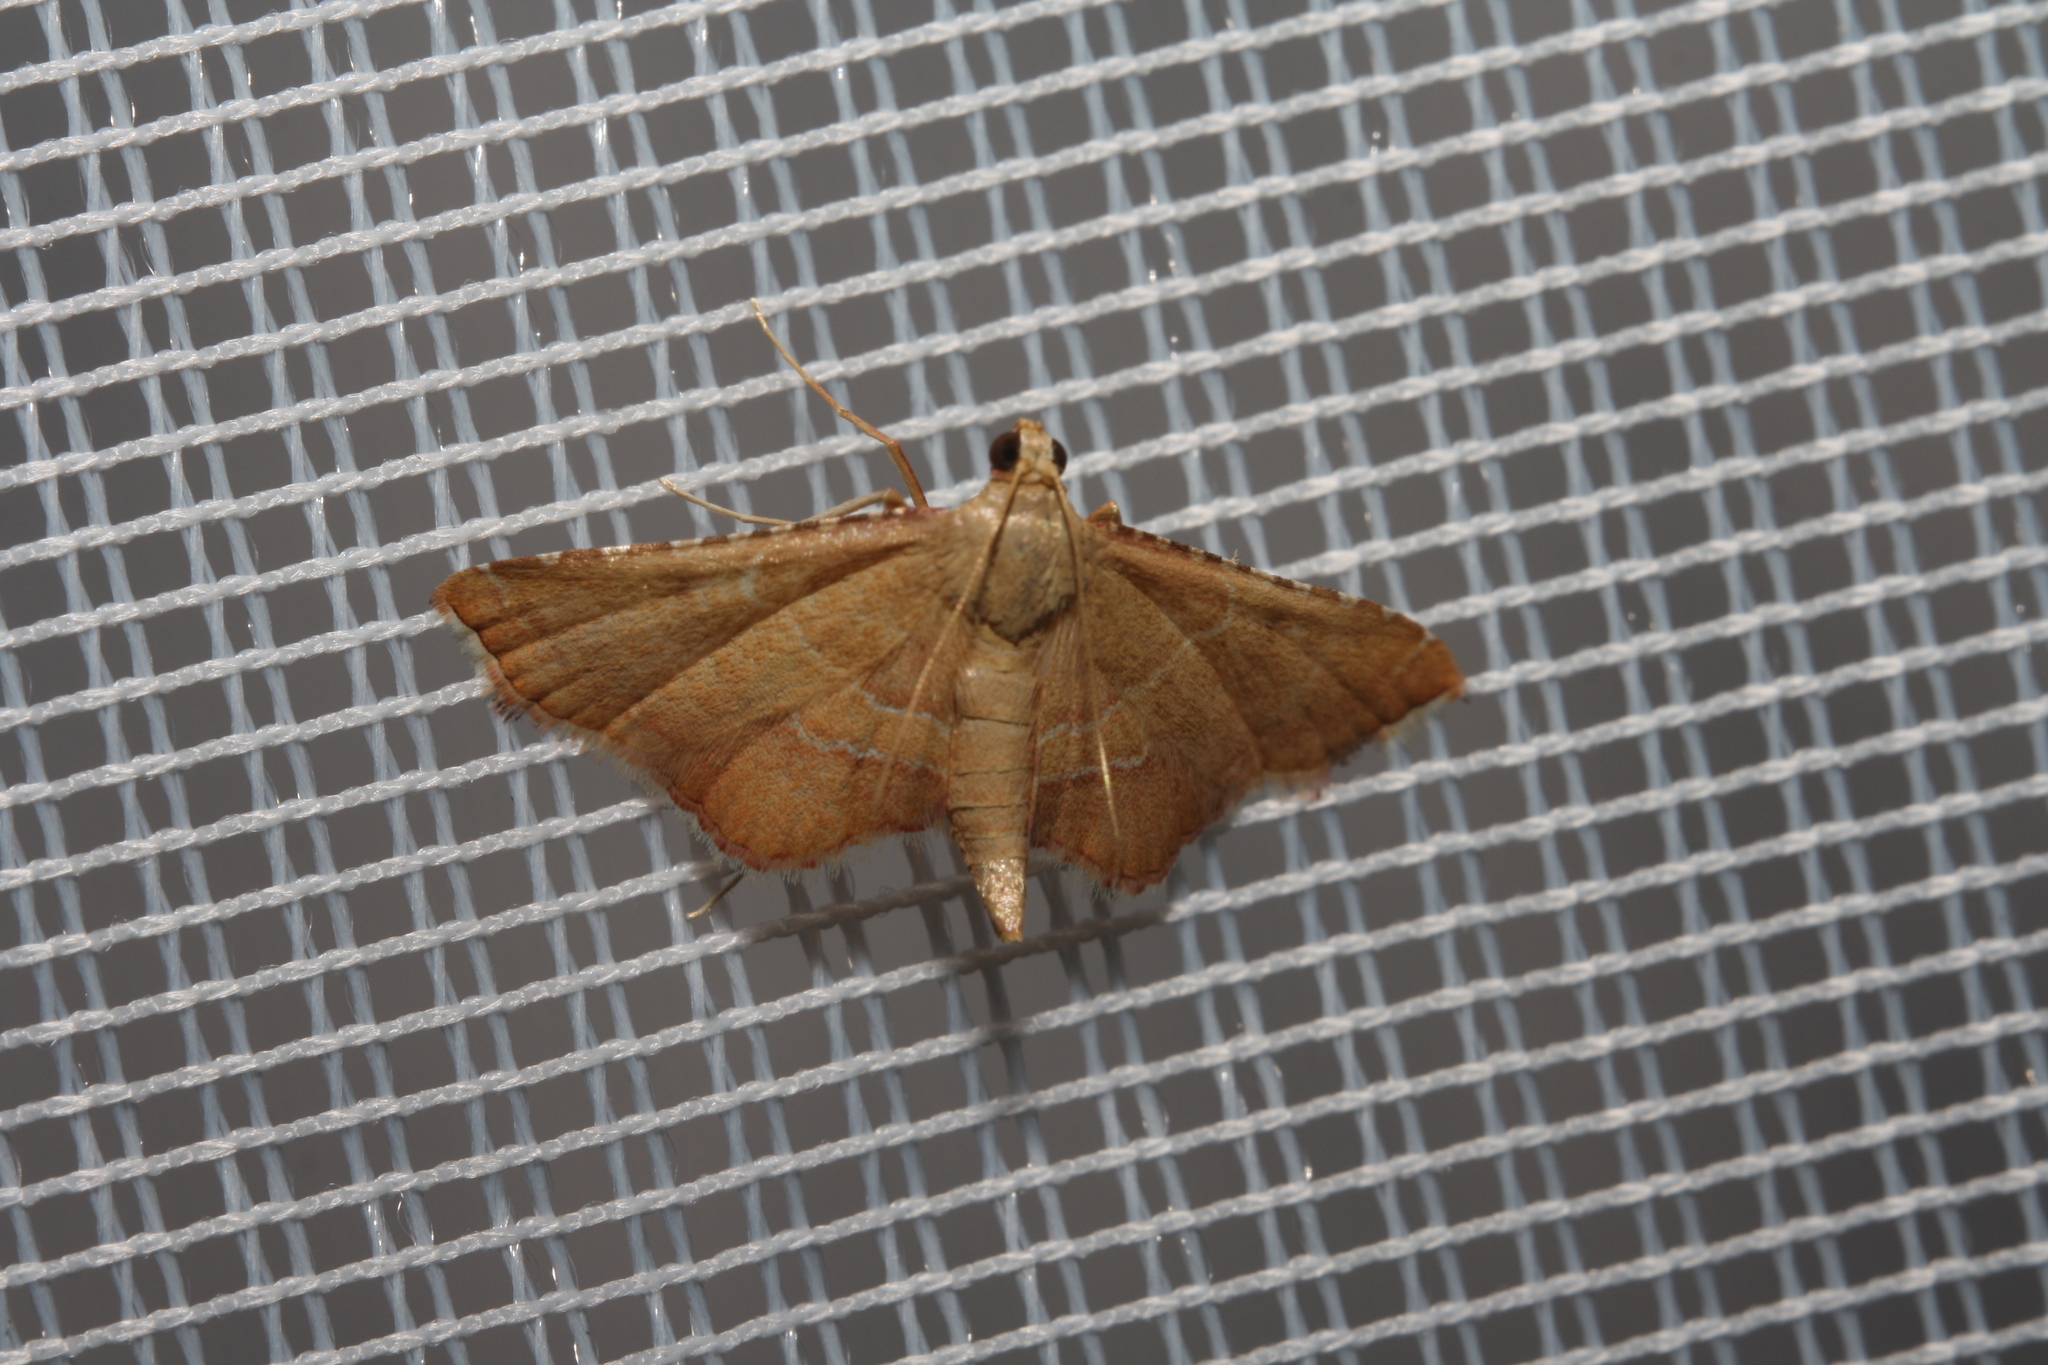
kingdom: Animalia
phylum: Arthropoda
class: Insecta
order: Lepidoptera
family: Pyralidae
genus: Endotricha
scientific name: Endotricha flammealis
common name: Rosy tabby
